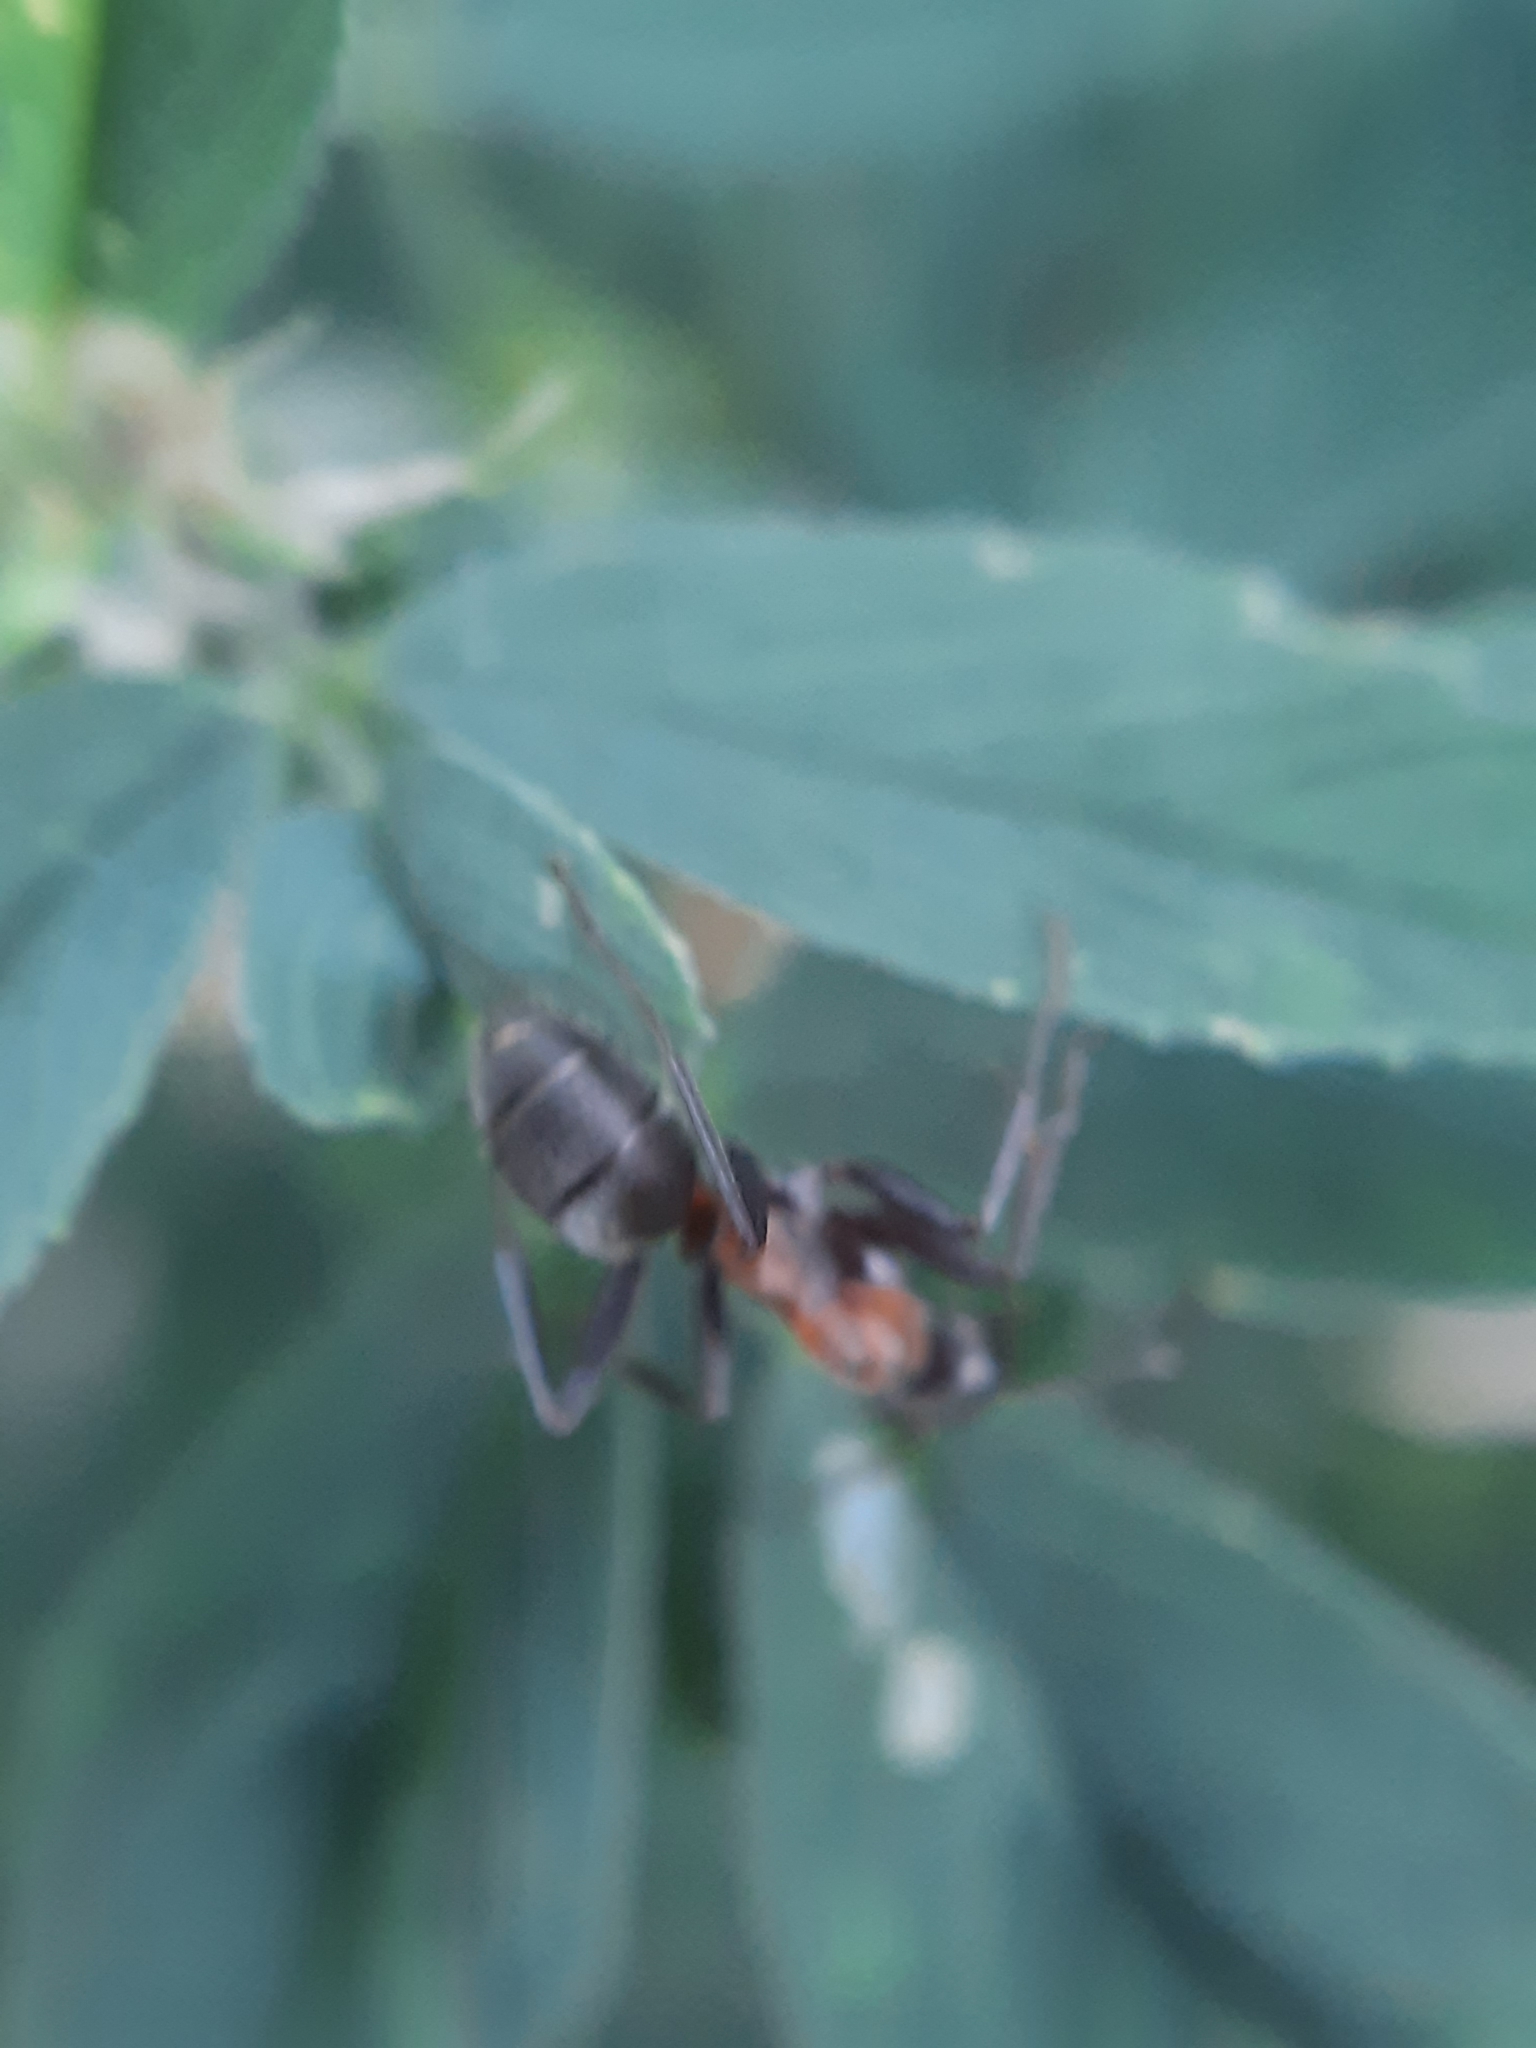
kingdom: Animalia
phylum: Arthropoda
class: Insecta
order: Hymenoptera
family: Formicidae
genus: Formica
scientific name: Formica
